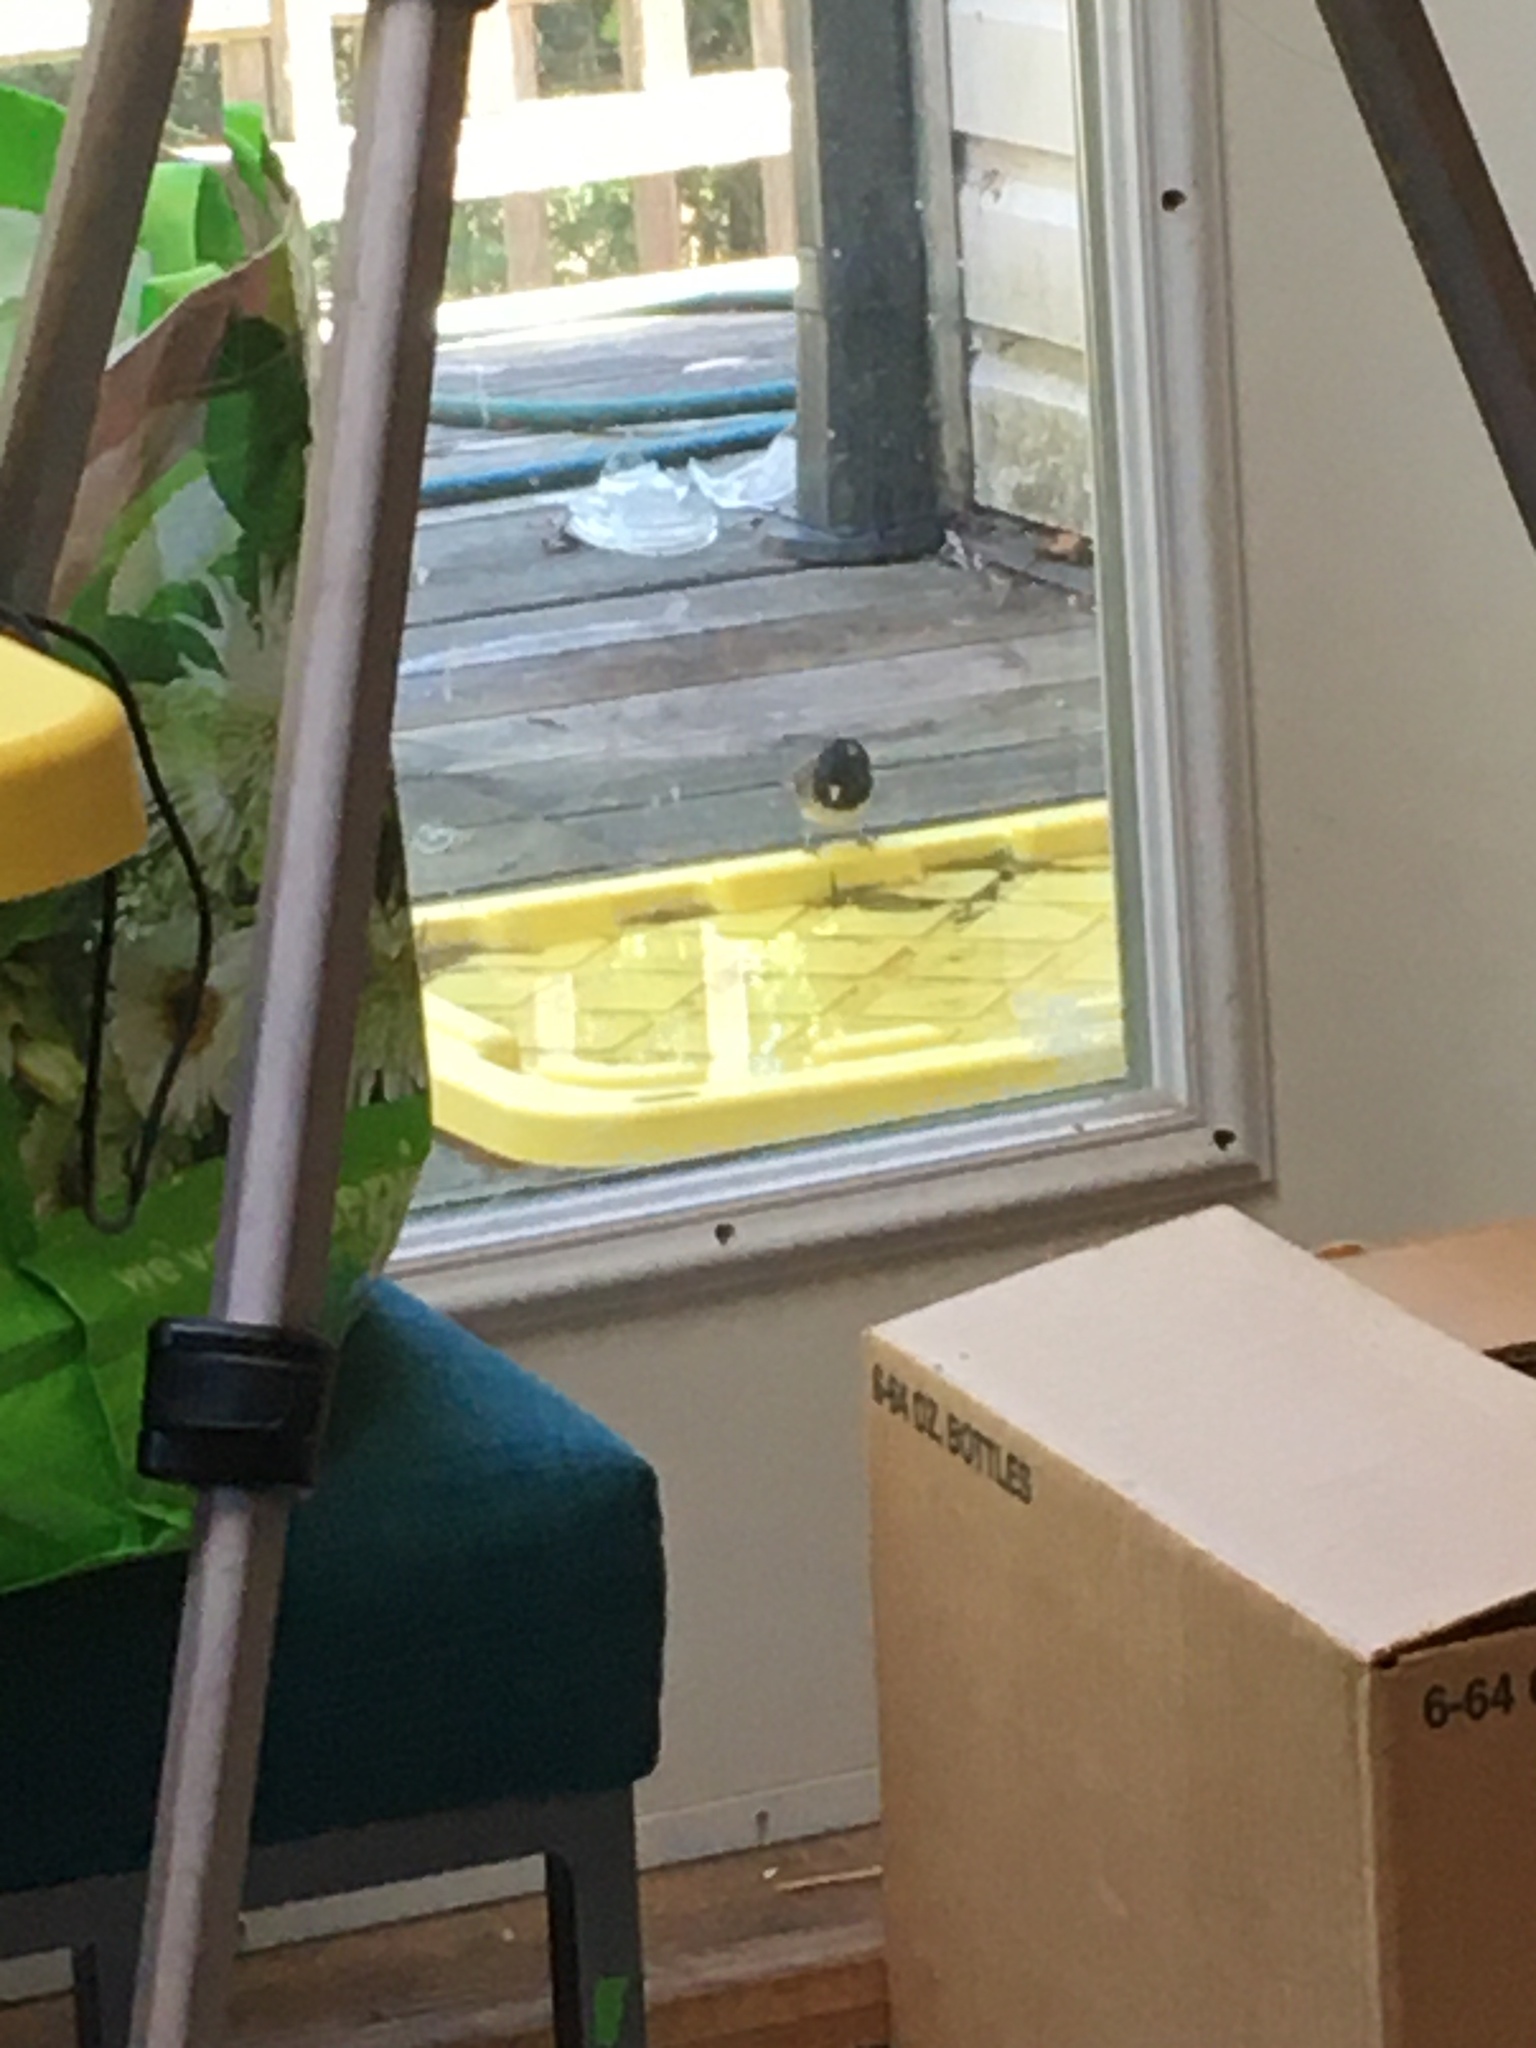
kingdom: Animalia
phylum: Chordata
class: Aves
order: Passeriformes
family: Passerellidae
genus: Junco
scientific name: Junco hyemalis
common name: Dark-eyed junco
